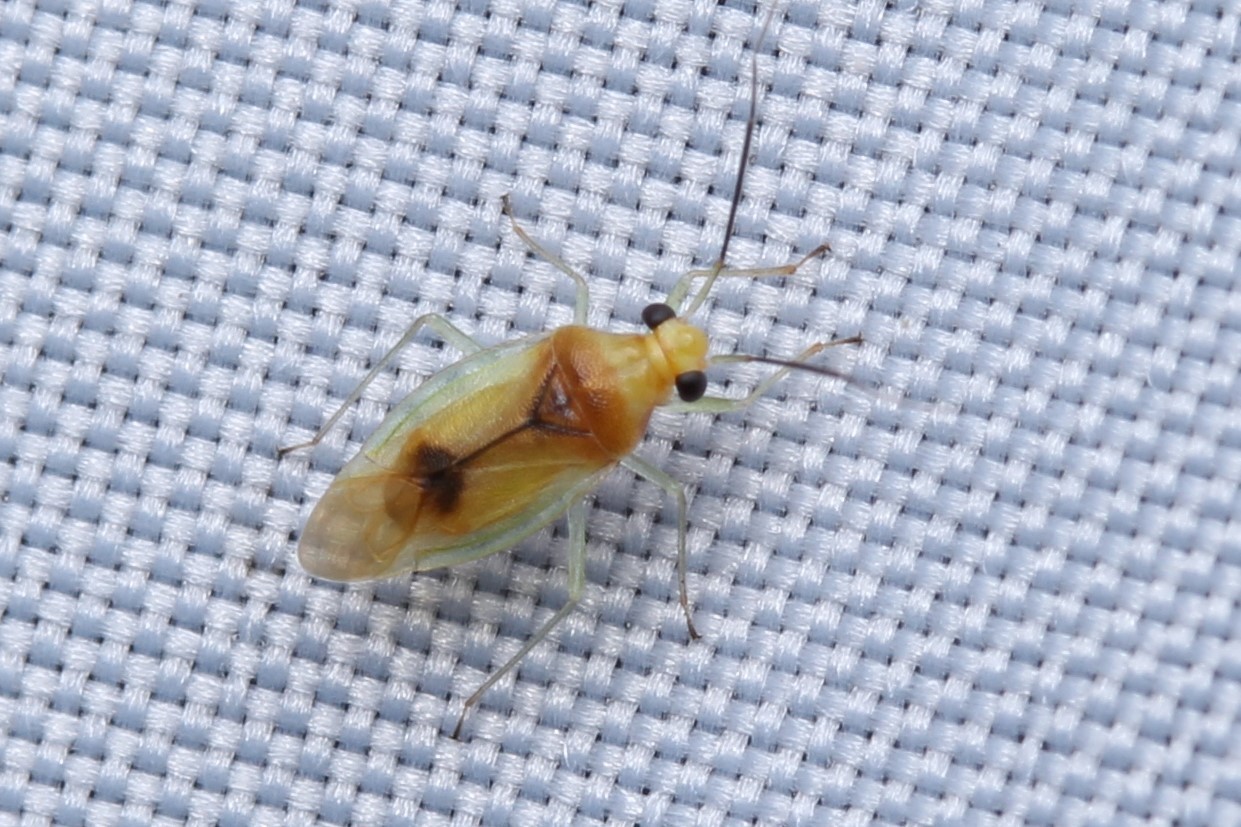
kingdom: Animalia
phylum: Arthropoda
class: Insecta
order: Hemiptera
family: Miridae
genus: Dioclerus
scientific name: Dioclerus
